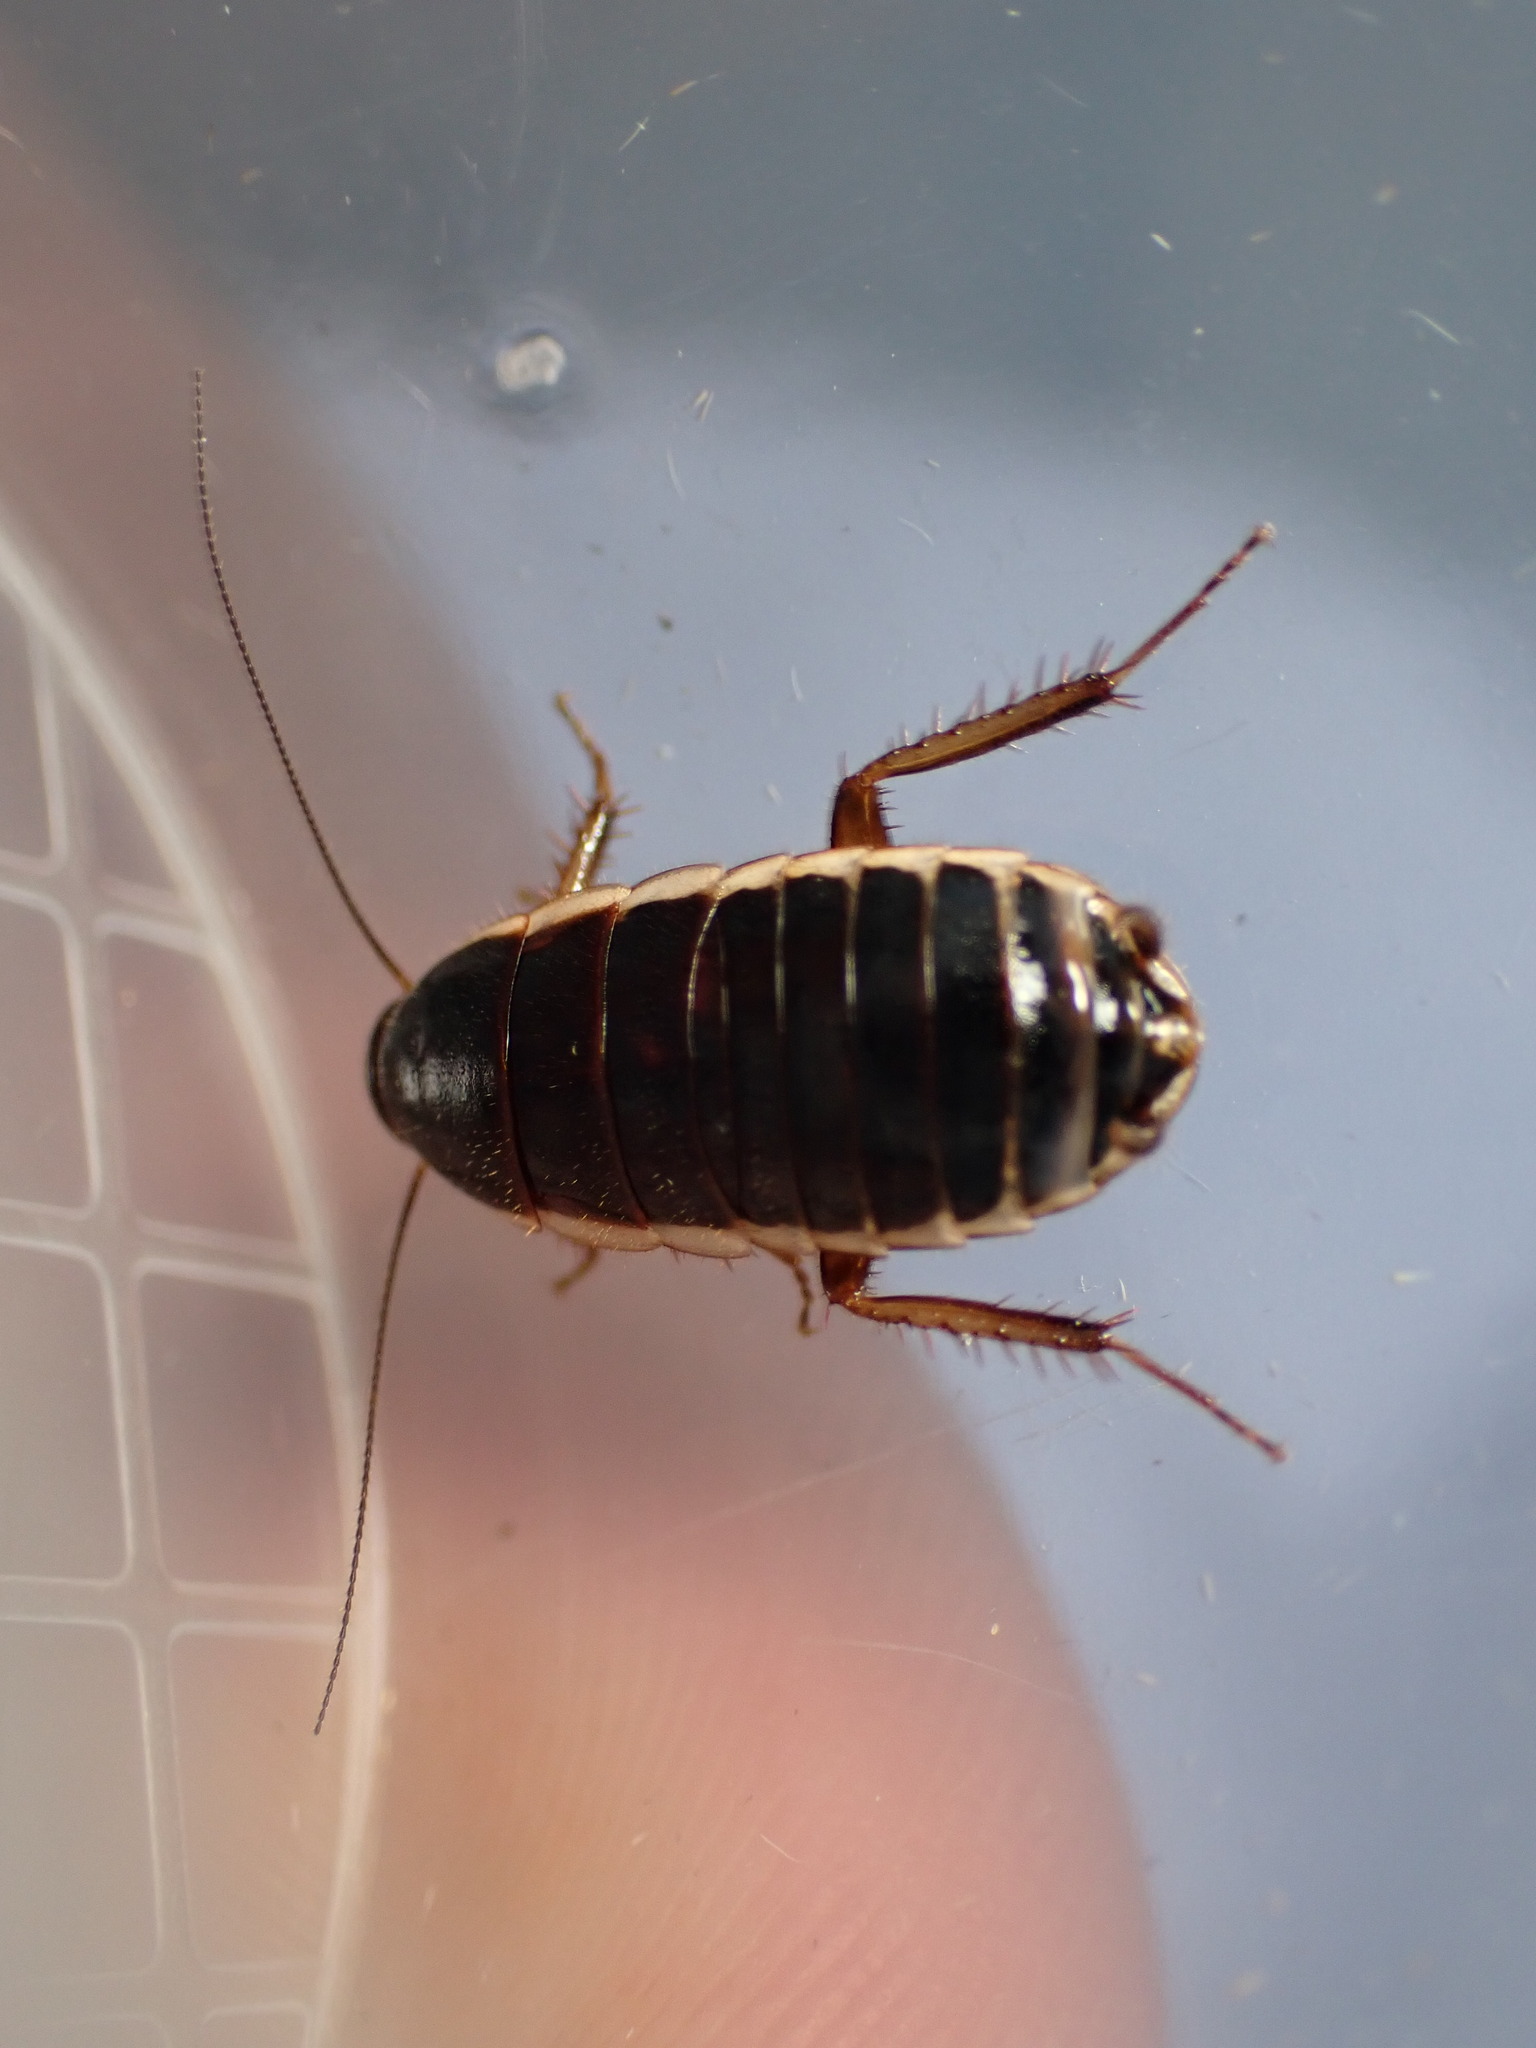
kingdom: Animalia
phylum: Arthropoda
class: Insecta
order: Blattodea
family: Ectobiidae
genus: Loboptera
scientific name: Loboptera decipiens
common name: Lobe-winged cockroach
